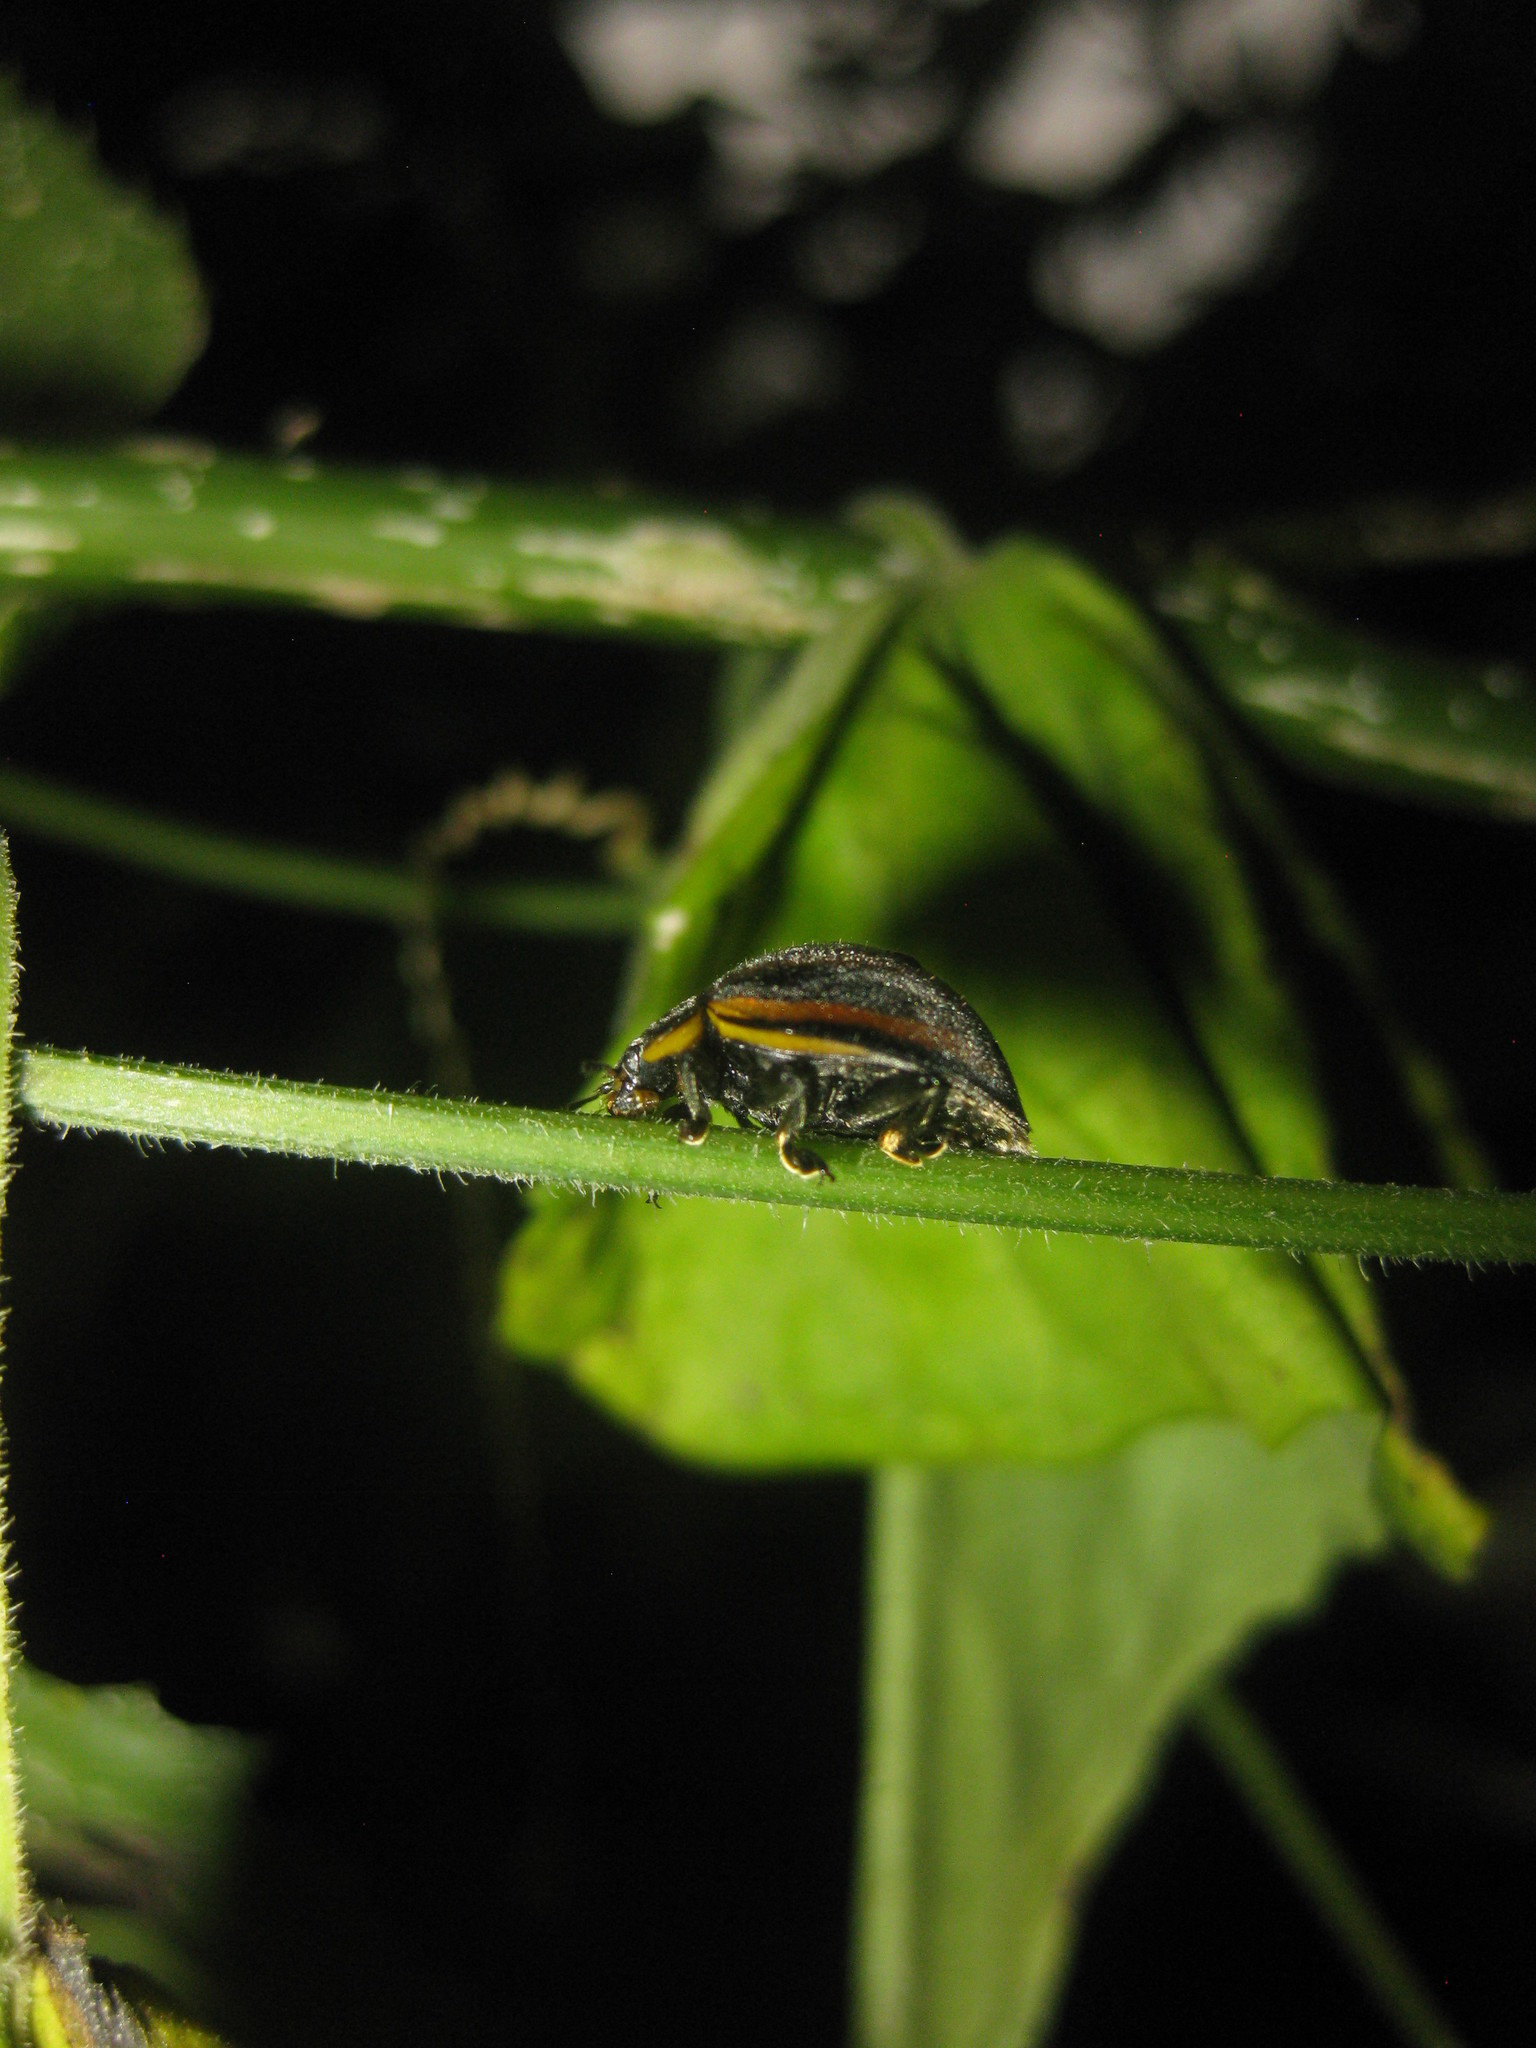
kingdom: Animalia
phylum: Arthropoda
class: Insecta
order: Coleoptera
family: Coccinellidae
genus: Epilachna
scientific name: Epilachna
